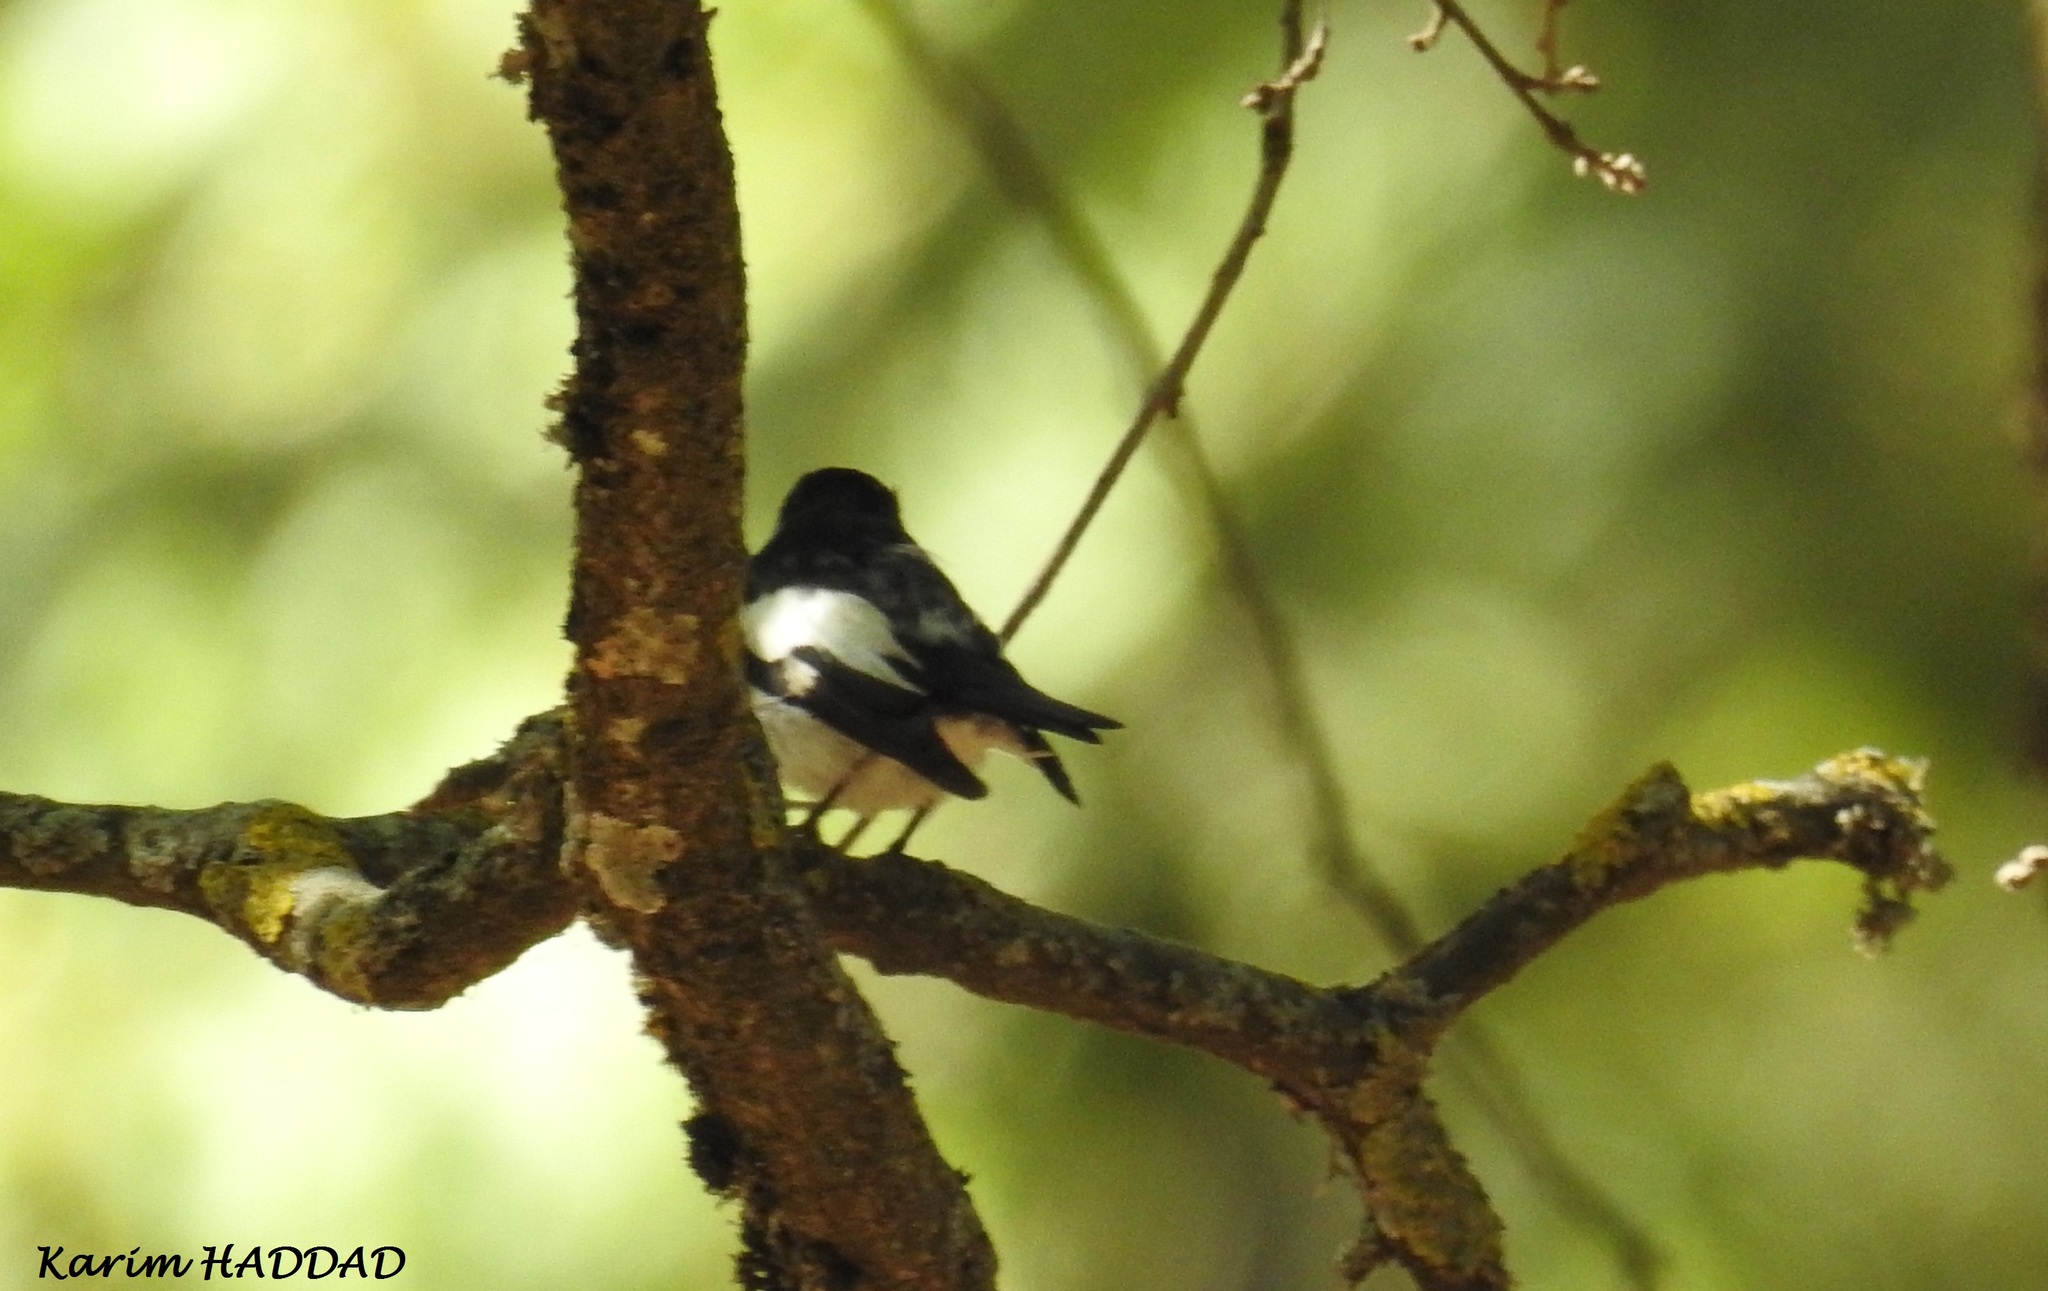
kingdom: Animalia
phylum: Chordata
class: Aves
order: Passeriformes
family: Muscicapidae
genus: Ficedula
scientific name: Ficedula speculigera
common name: Atlas pied flycatcher
